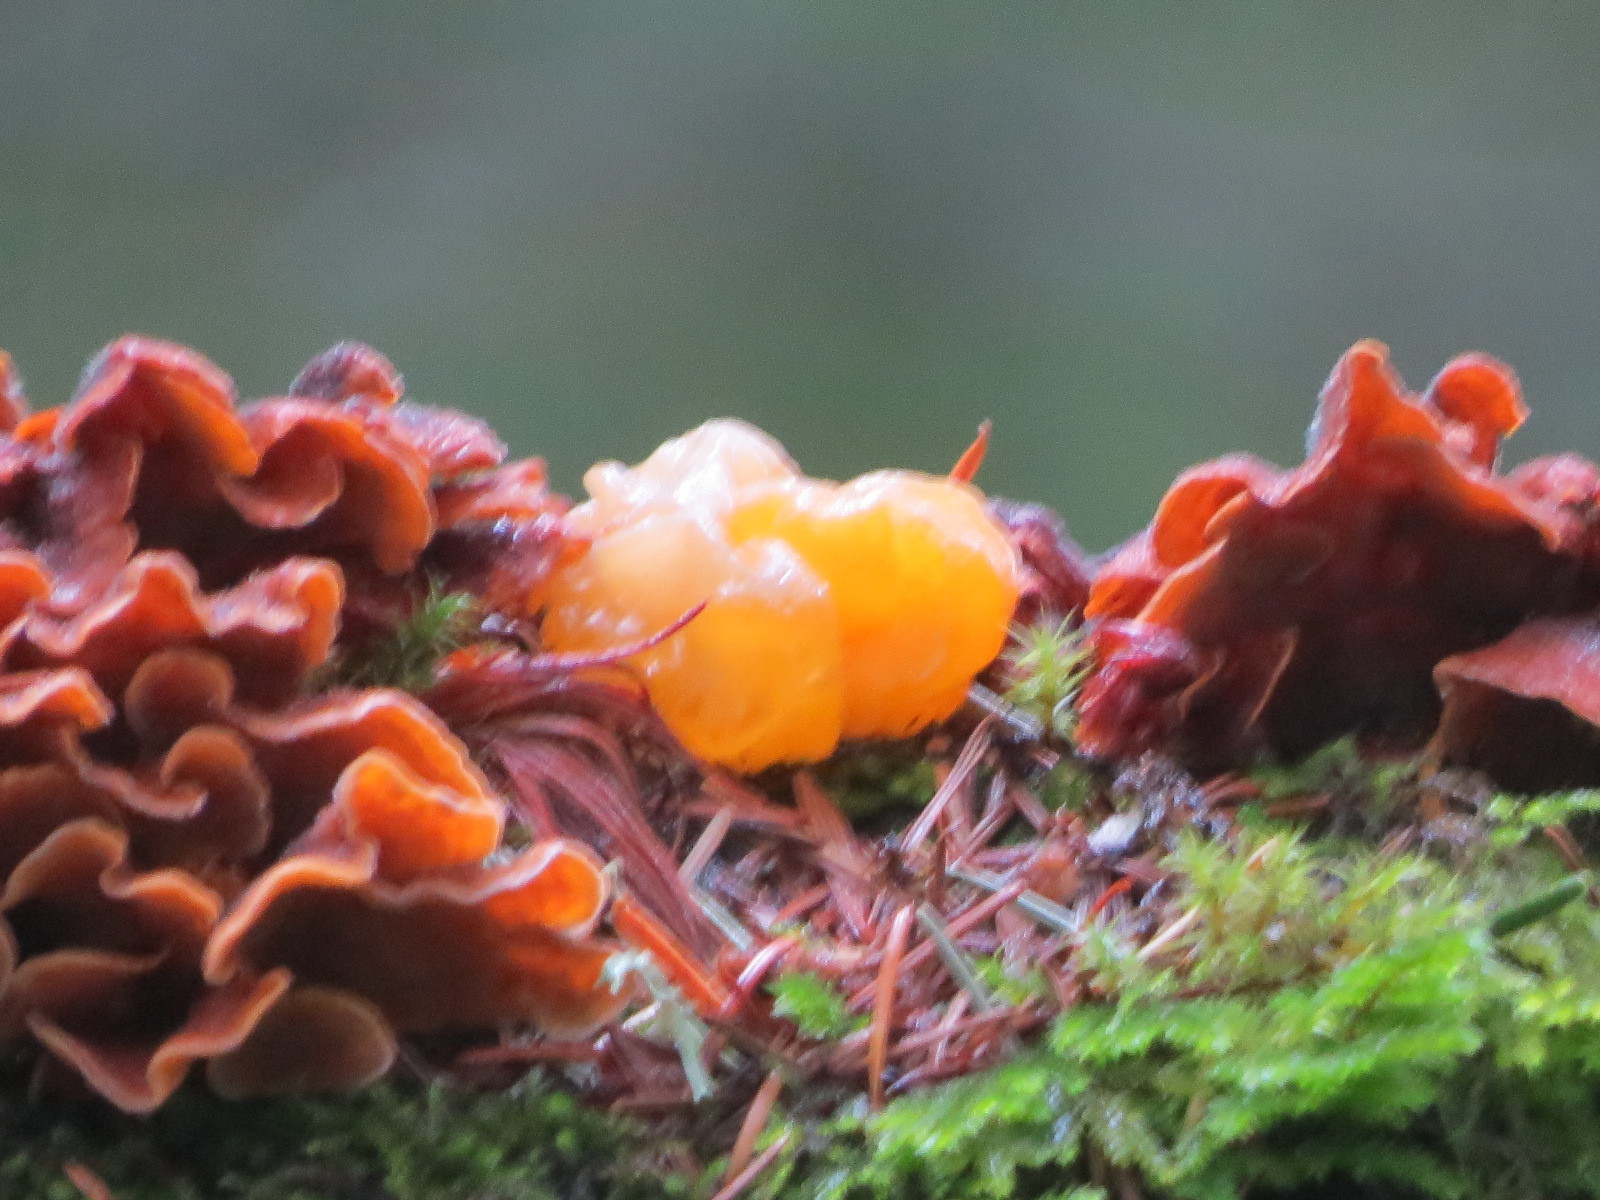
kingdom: Fungi
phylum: Basidiomycota
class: Tremellomycetes
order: Tremellales
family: Naemateliaceae
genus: Naematelia
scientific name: Naematelia aurantia
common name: Golden ear
